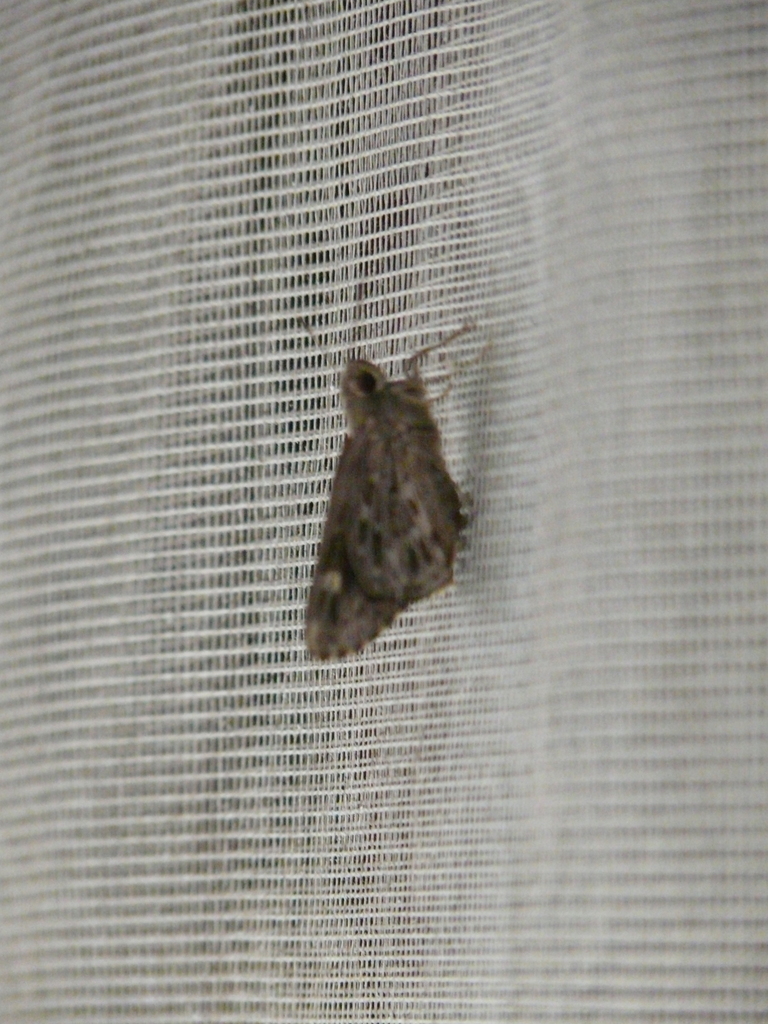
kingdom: Animalia
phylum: Arthropoda
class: Insecta
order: Lepidoptera
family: Hesperiidae
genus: Gretna
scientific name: Gretna carmen
